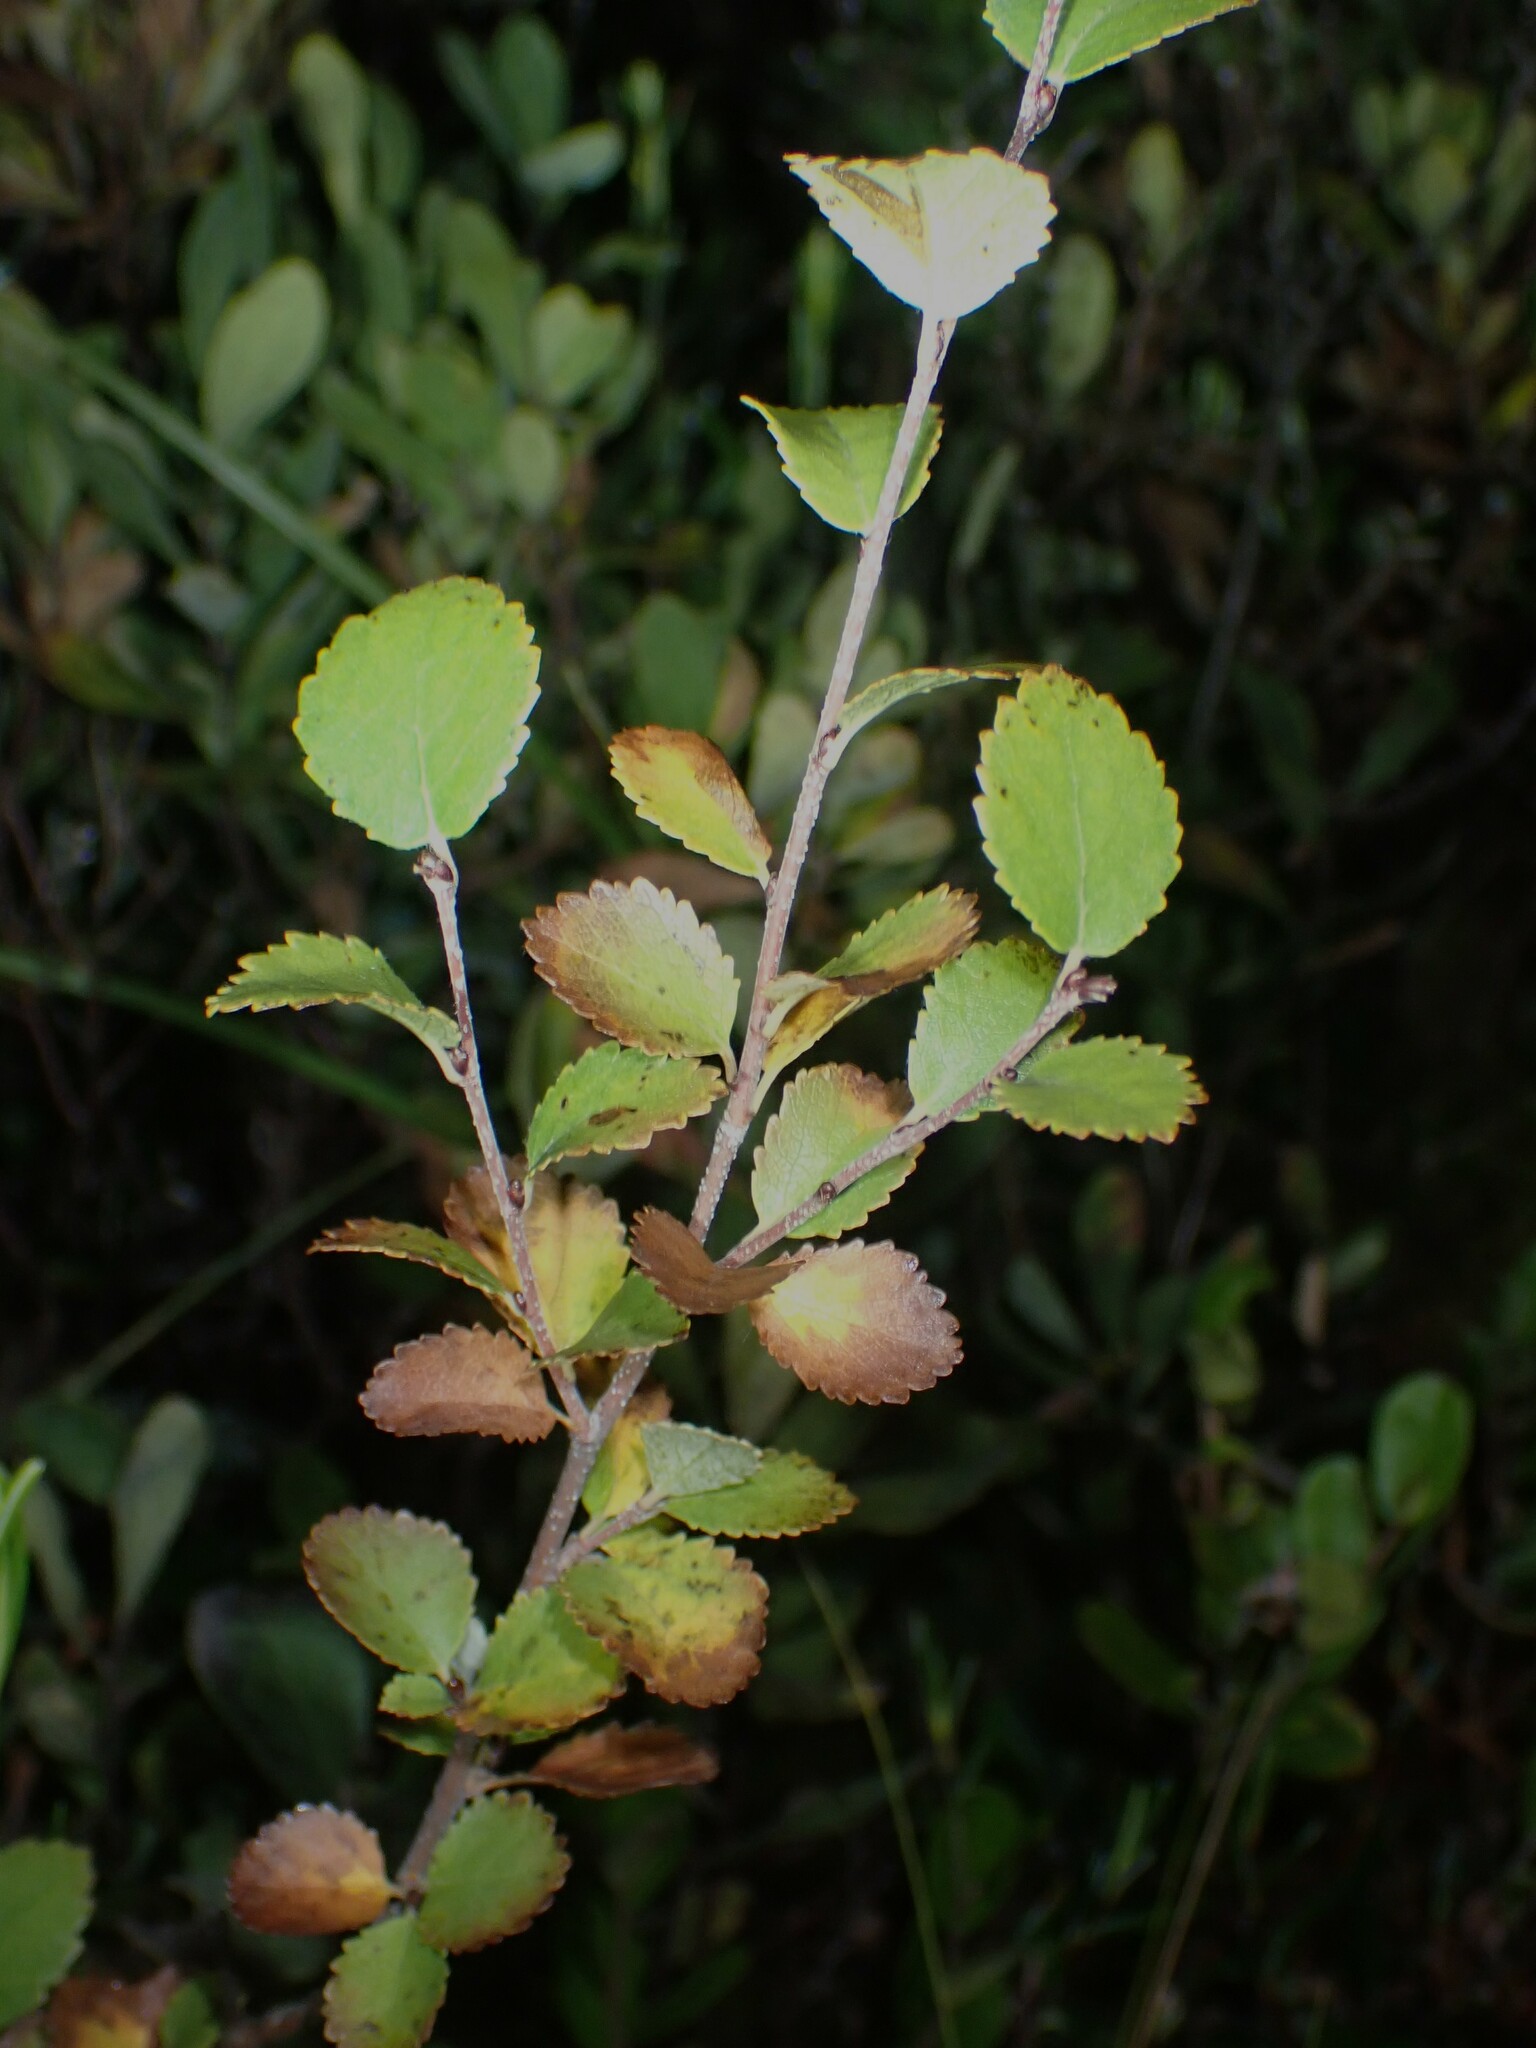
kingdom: Plantae
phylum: Tracheophyta
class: Magnoliopsida
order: Fagales
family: Betulaceae
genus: Betula
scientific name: Betula pumila
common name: Bog birch
